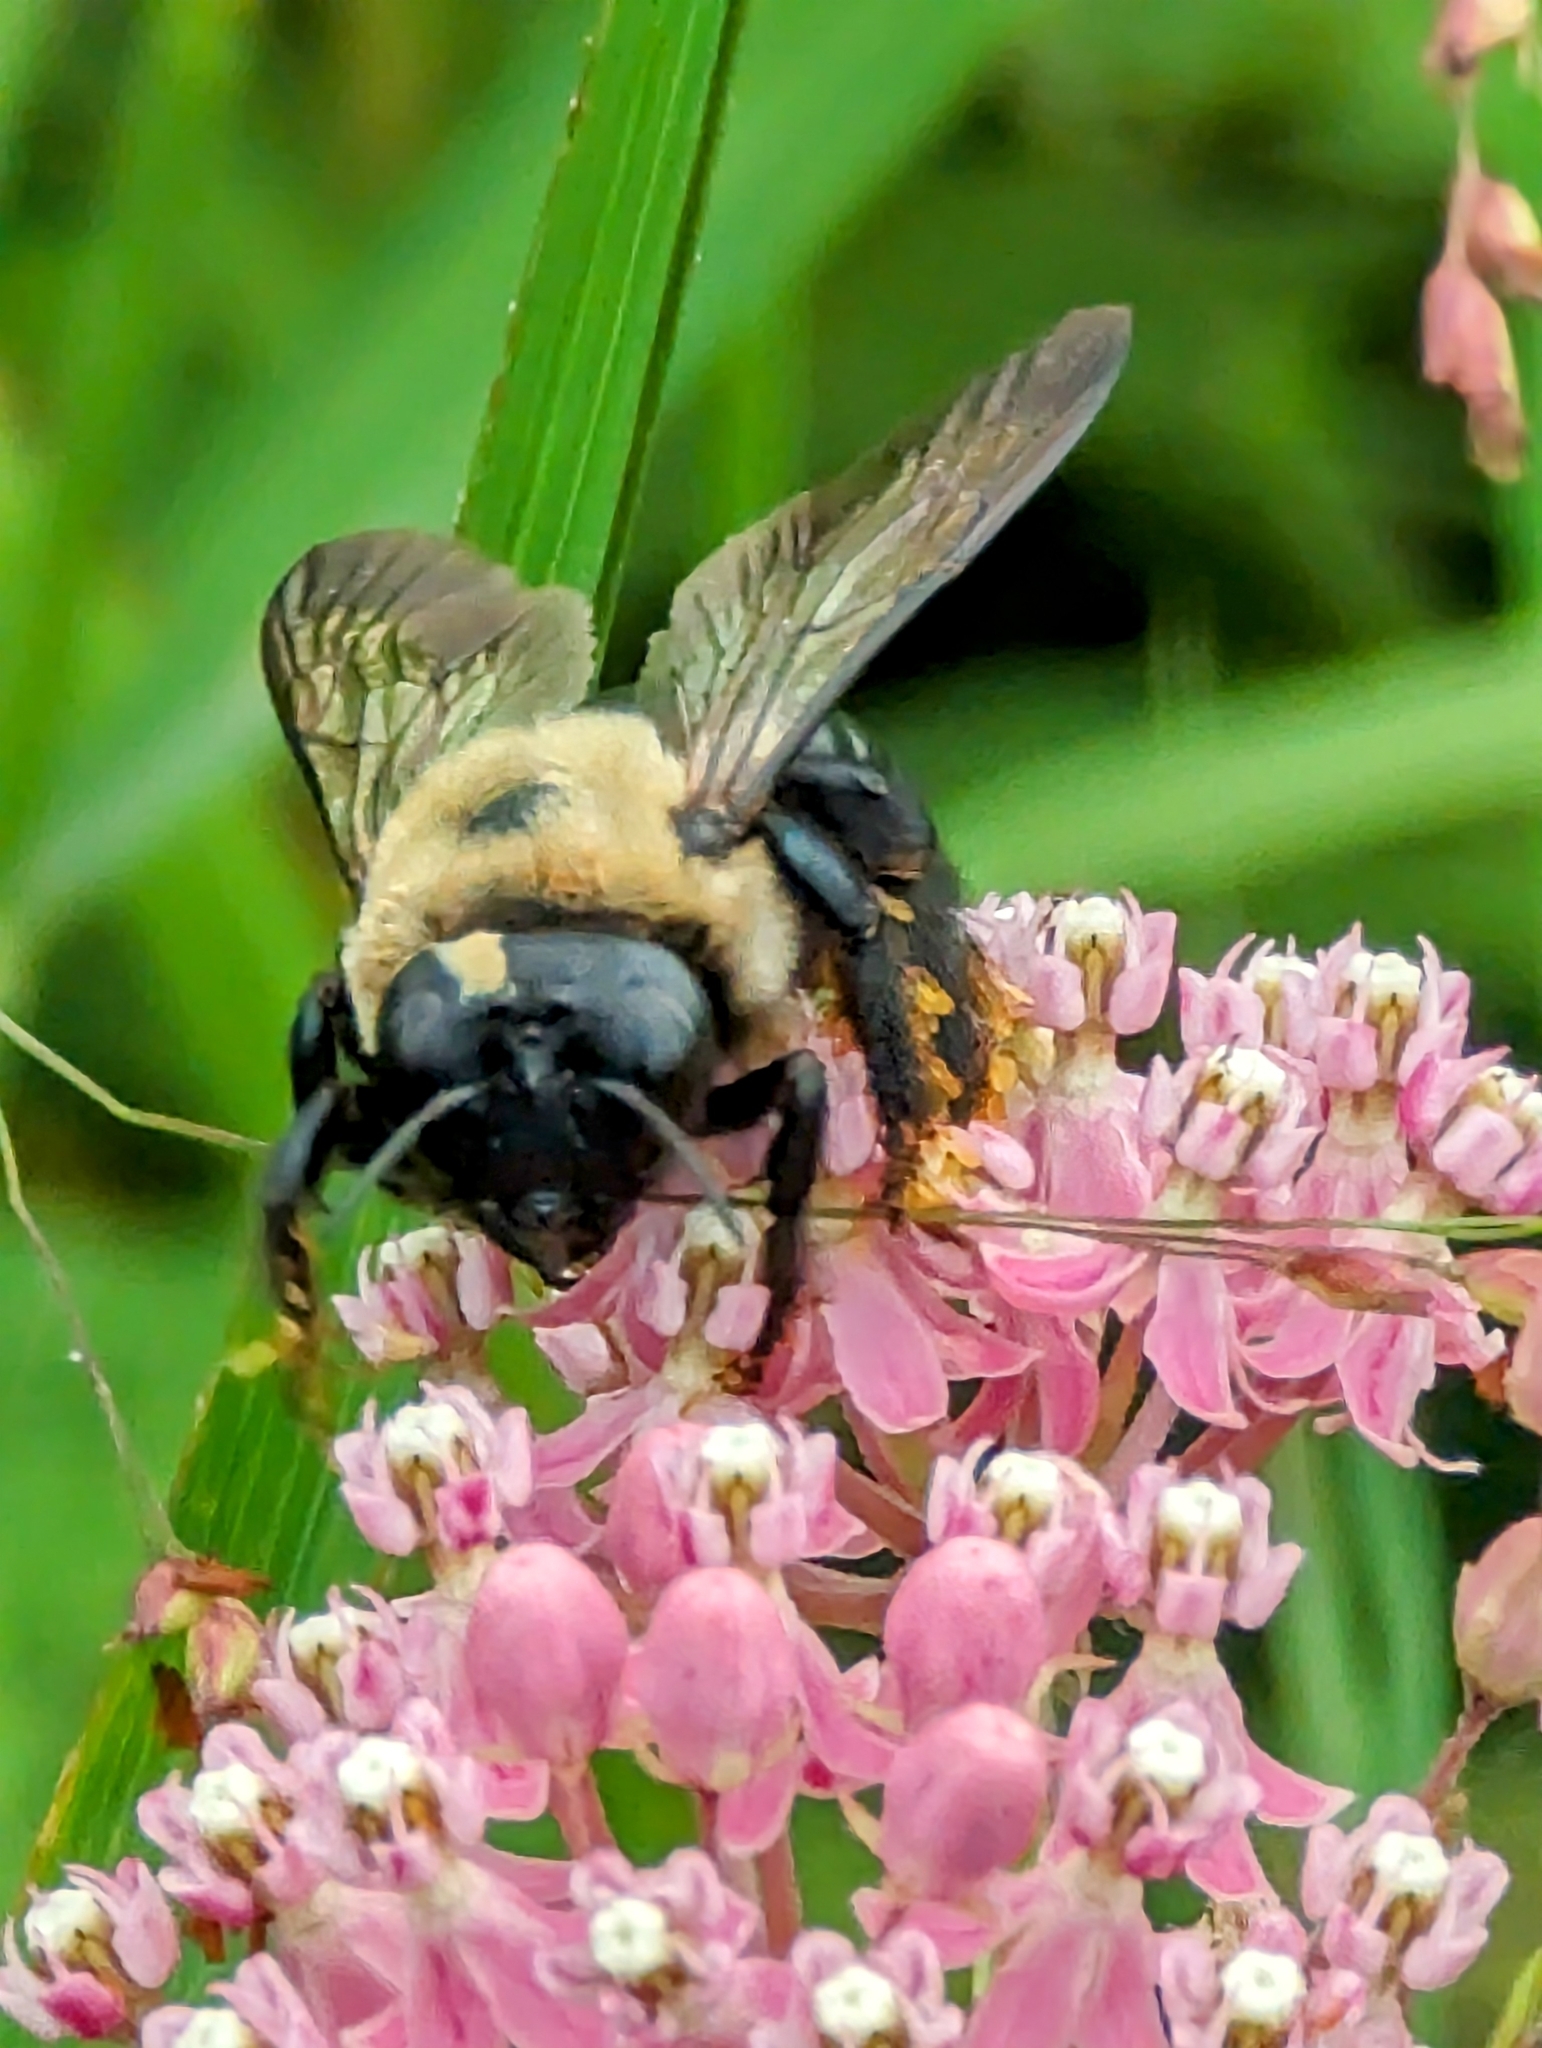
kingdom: Animalia
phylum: Arthropoda
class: Insecta
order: Hymenoptera
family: Apidae
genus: Xylocopa
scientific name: Xylocopa virginica
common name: Carpenter bee
